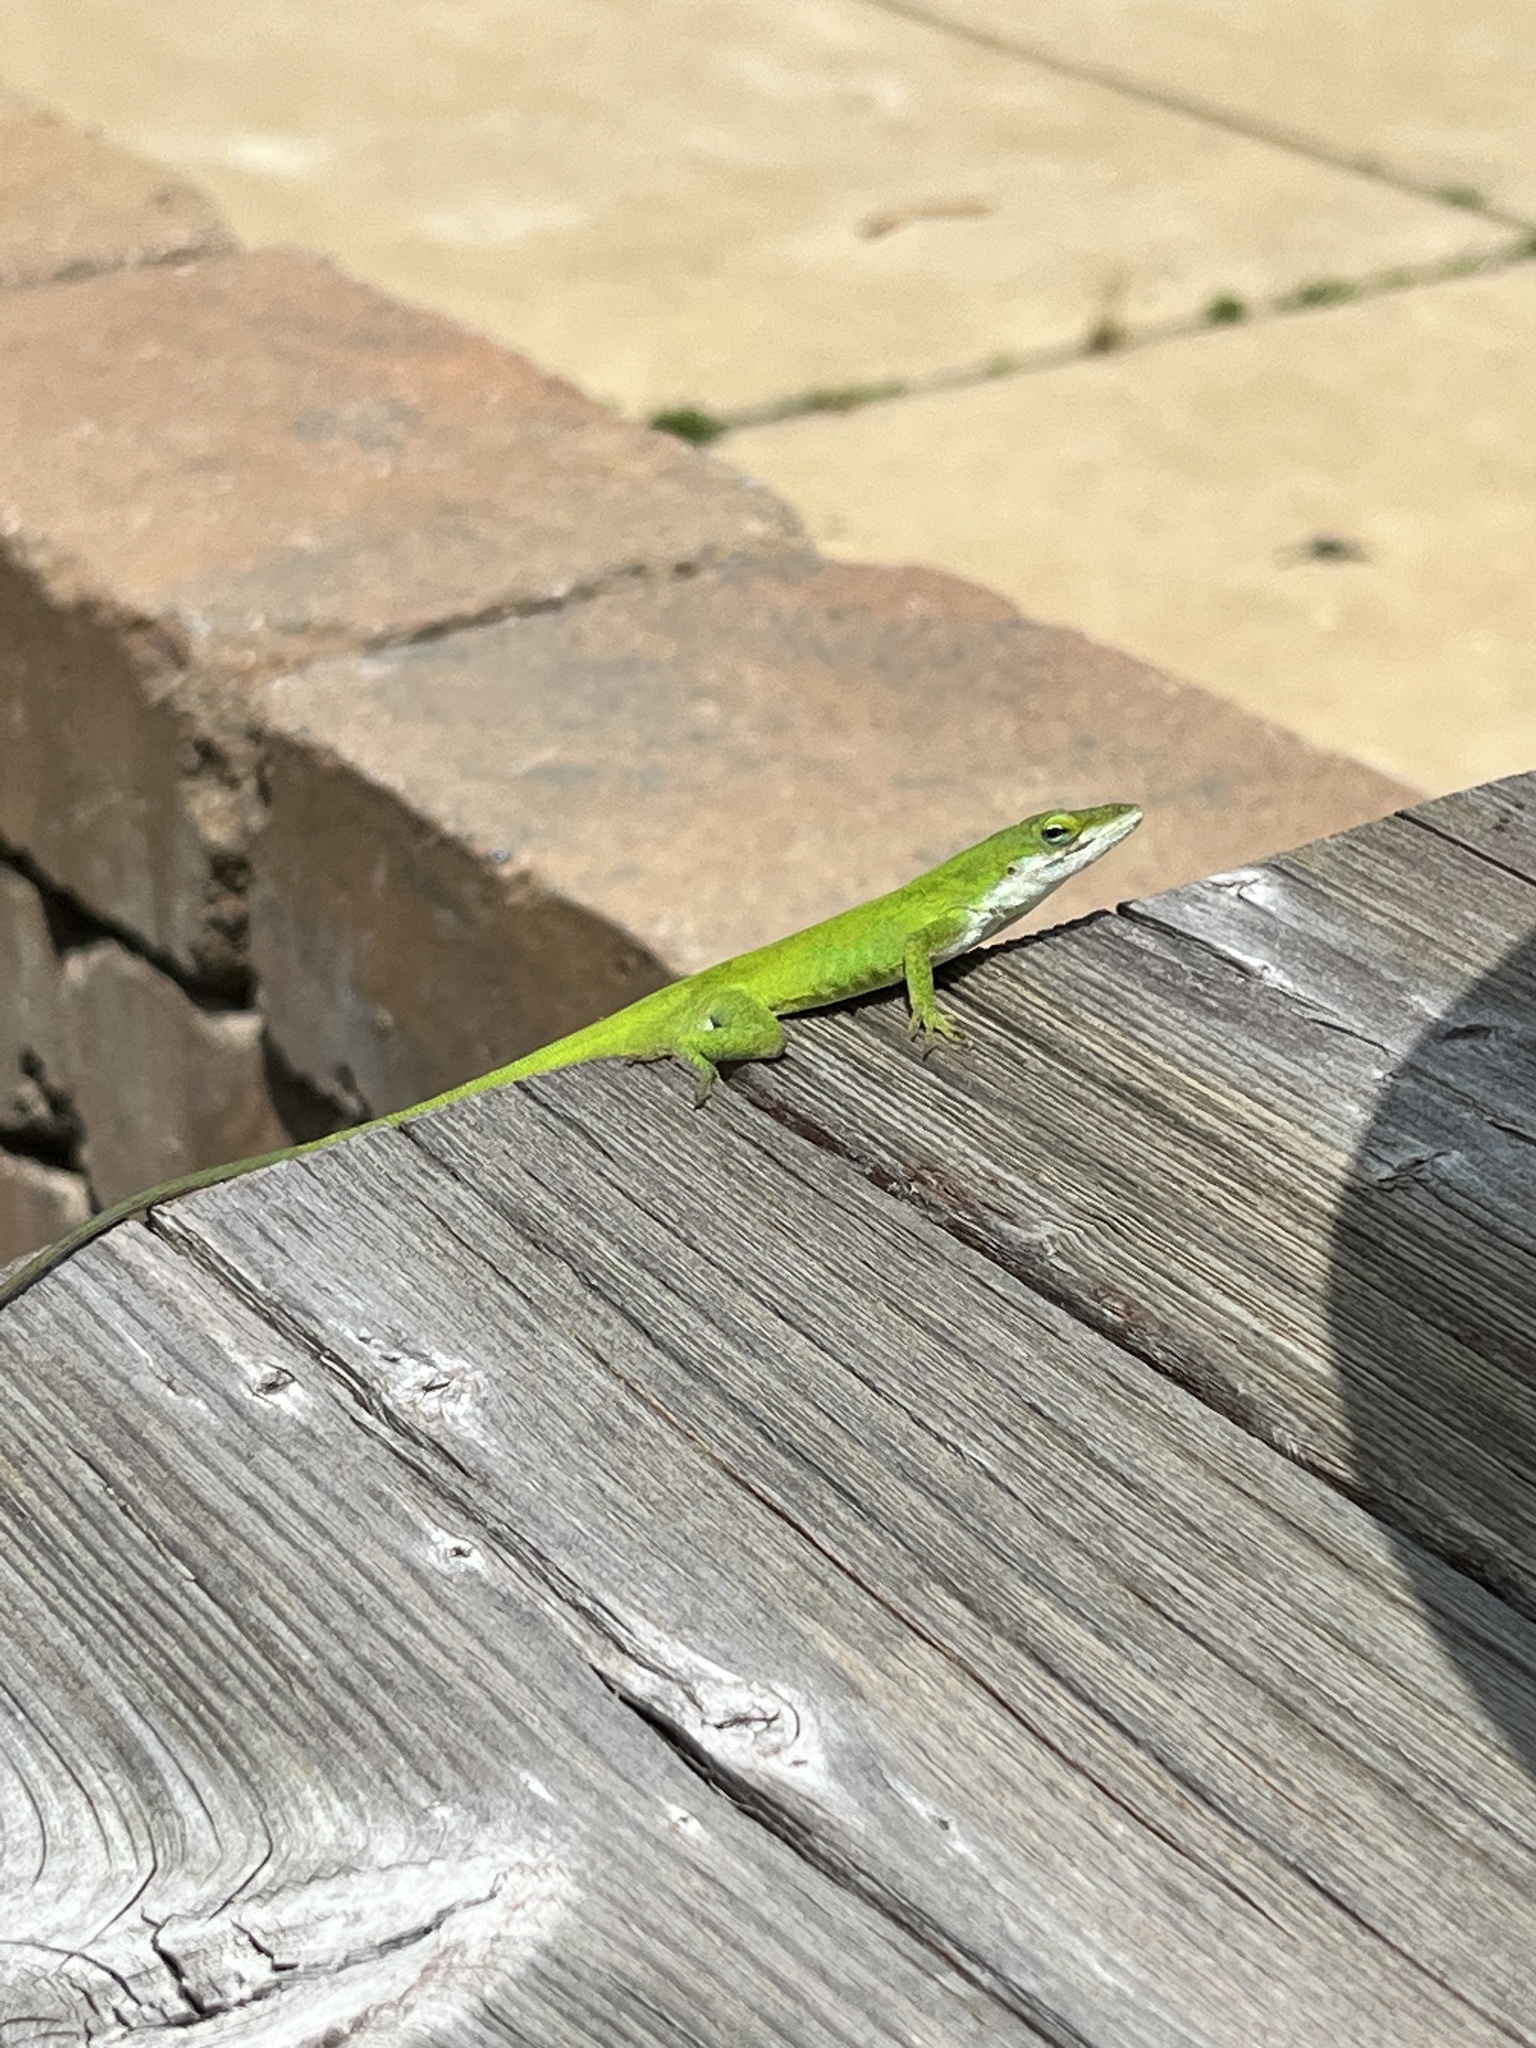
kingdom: Animalia
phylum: Chordata
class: Squamata
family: Dactyloidae
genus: Anolis
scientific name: Anolis carolinensis
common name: Green anole
